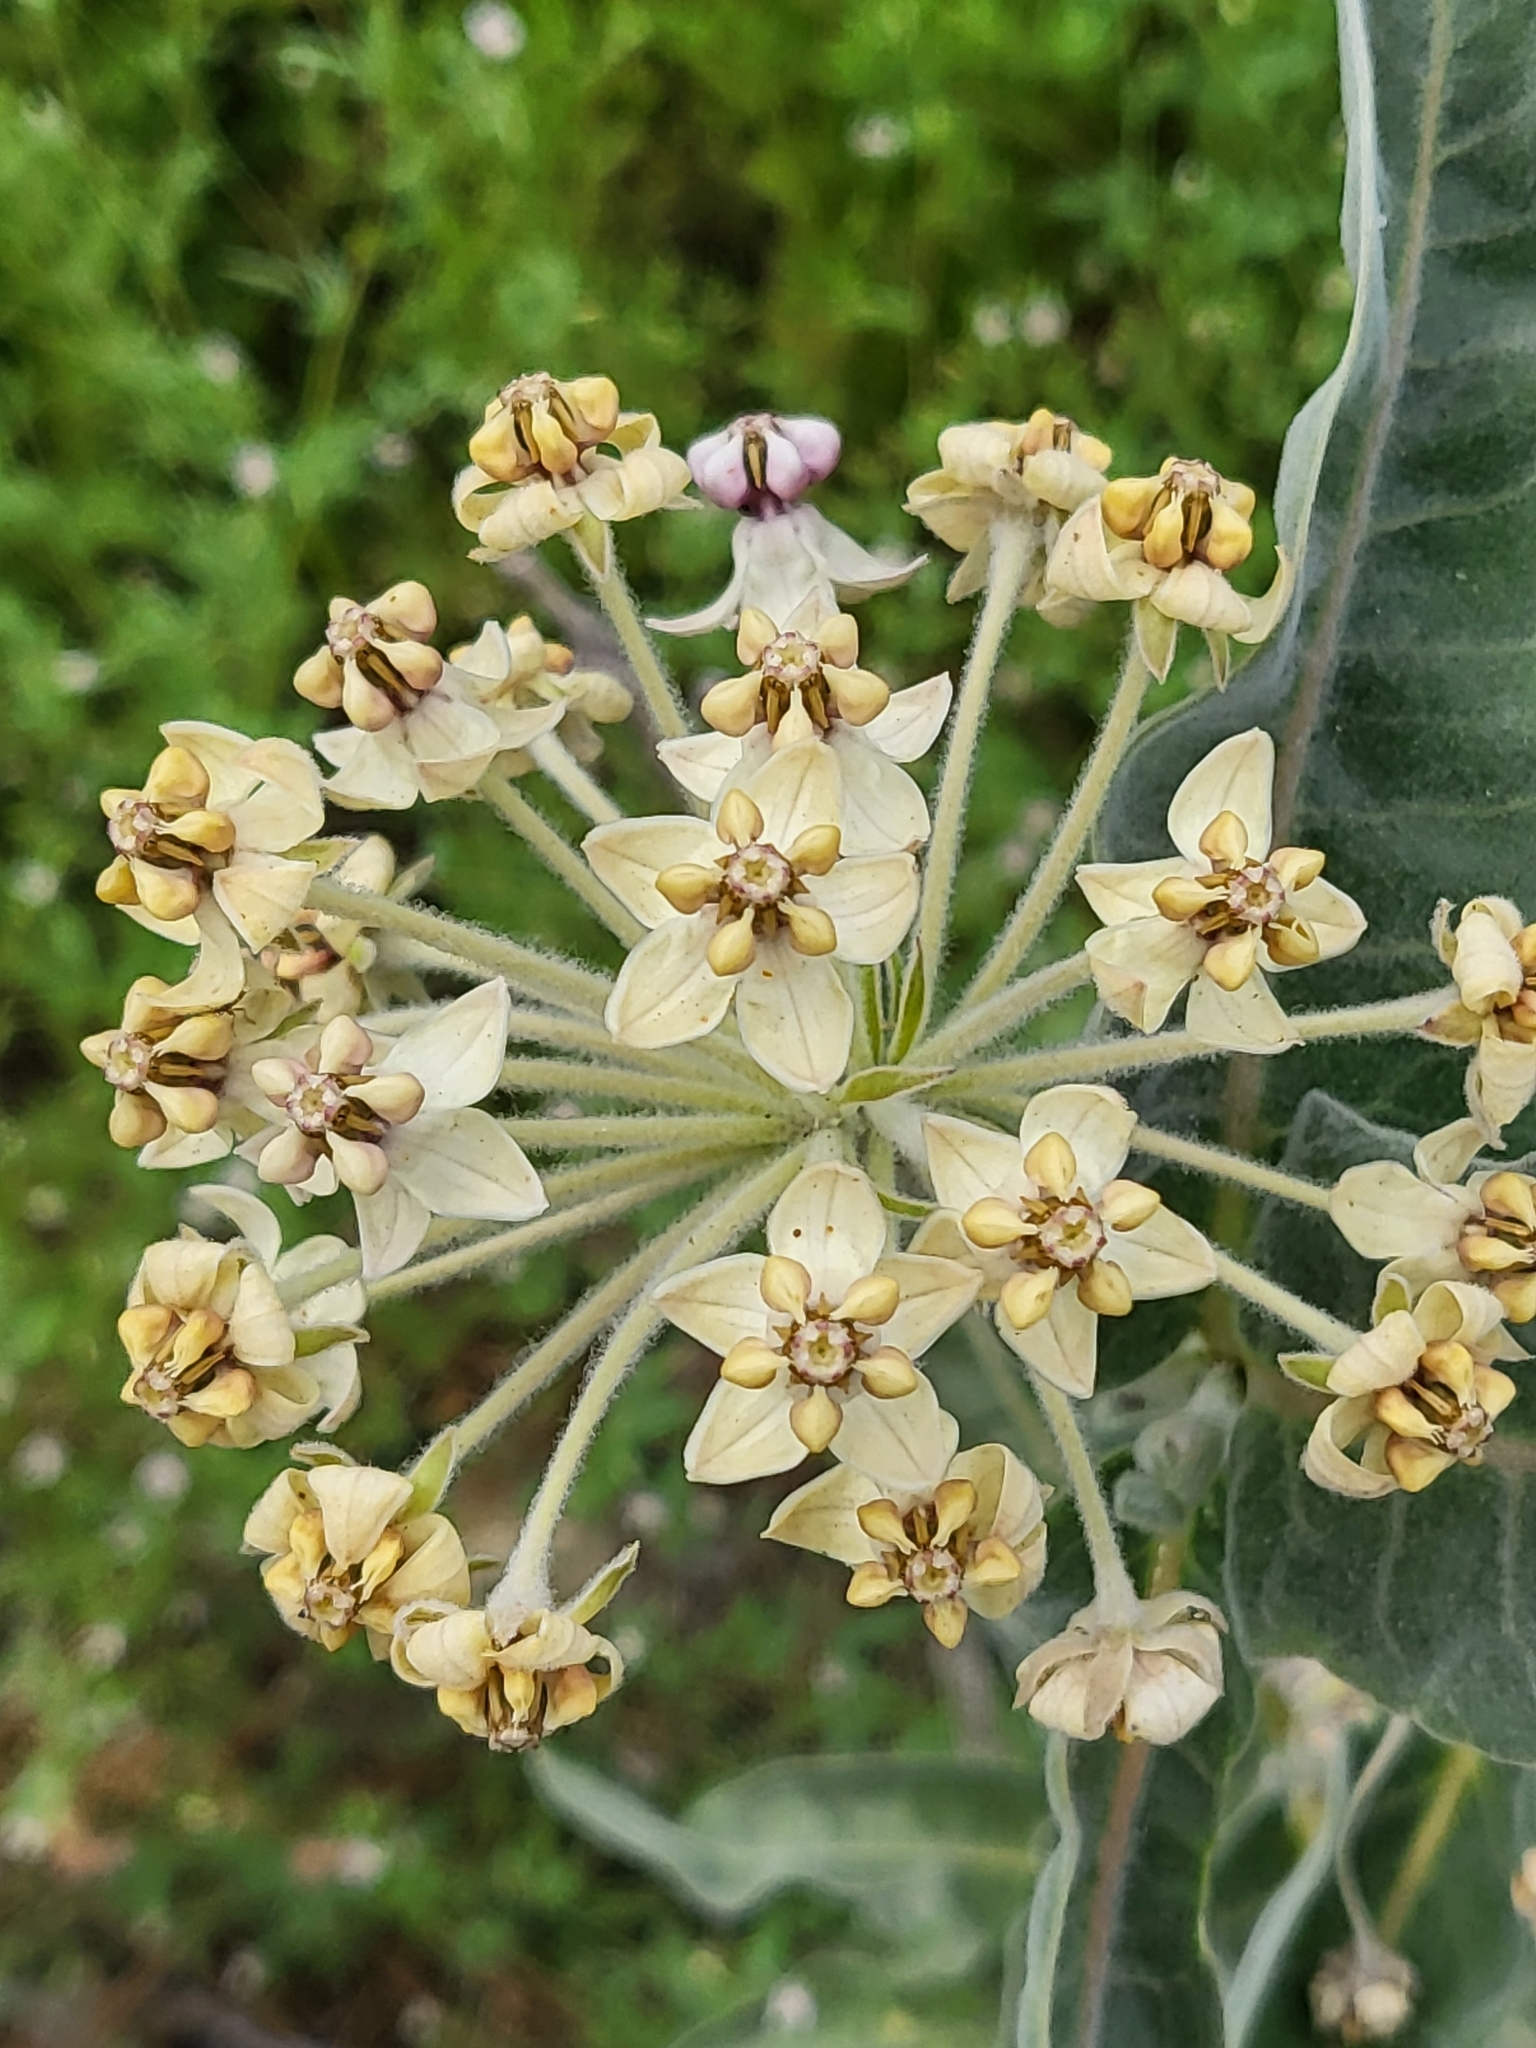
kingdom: Plantae
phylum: Tracheophyta
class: Magnoliopsida
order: Gentianales
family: Apocynaceae
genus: Asclepias
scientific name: Asclepias eriocarpa
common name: Indian milkweed
